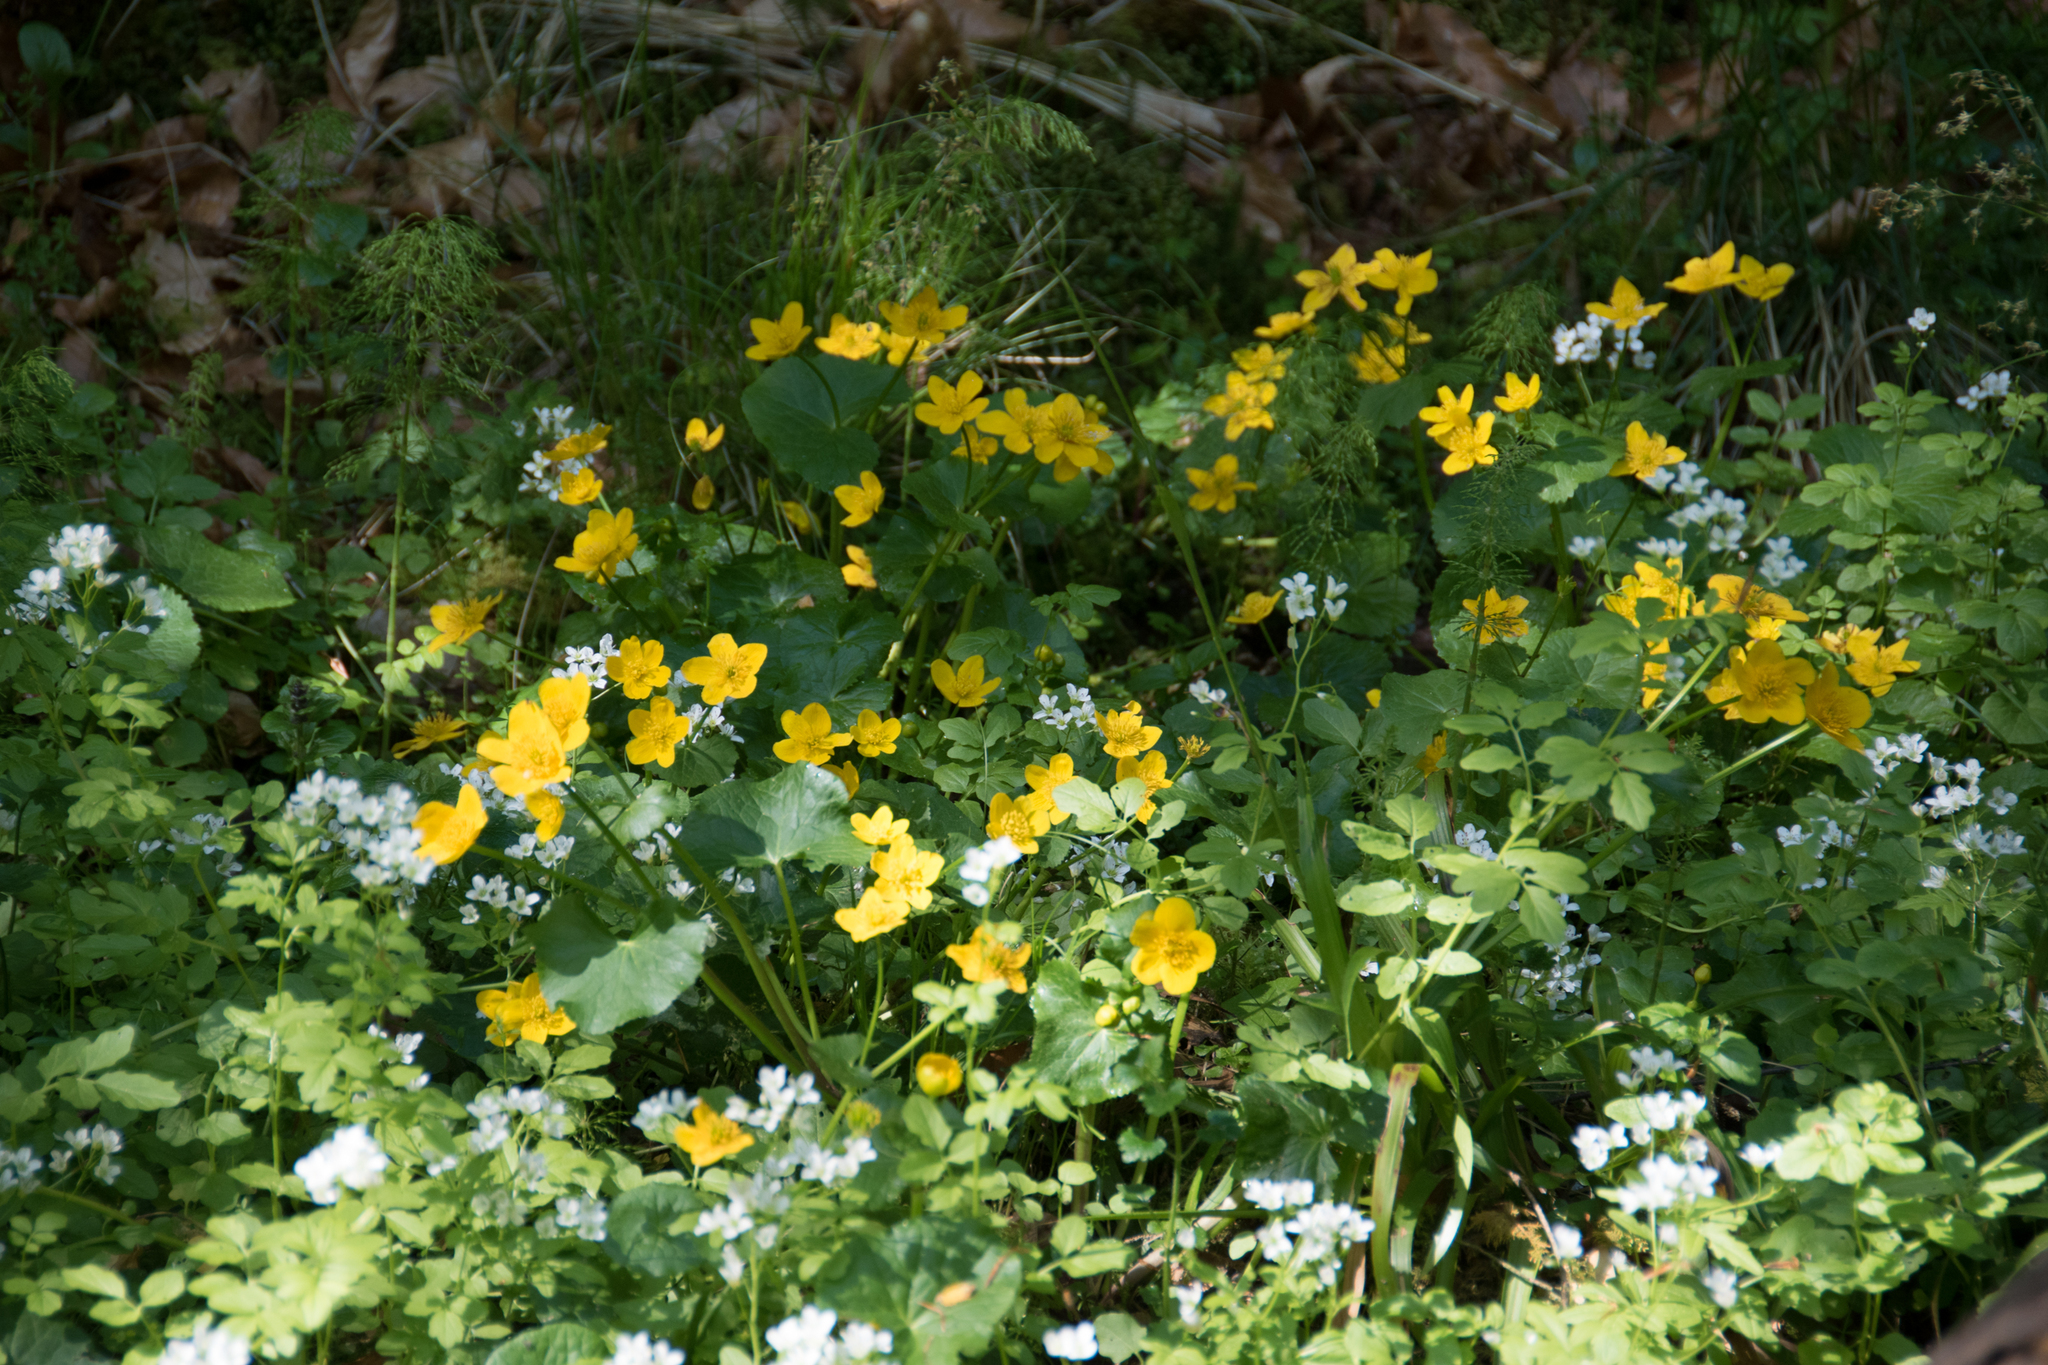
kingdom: Plantae
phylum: Tracheophyta
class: Magnoliopsida
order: Ranunculales
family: Ranunculaceae
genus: Caltha
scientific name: Caltha palustris
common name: Marsh marigold
